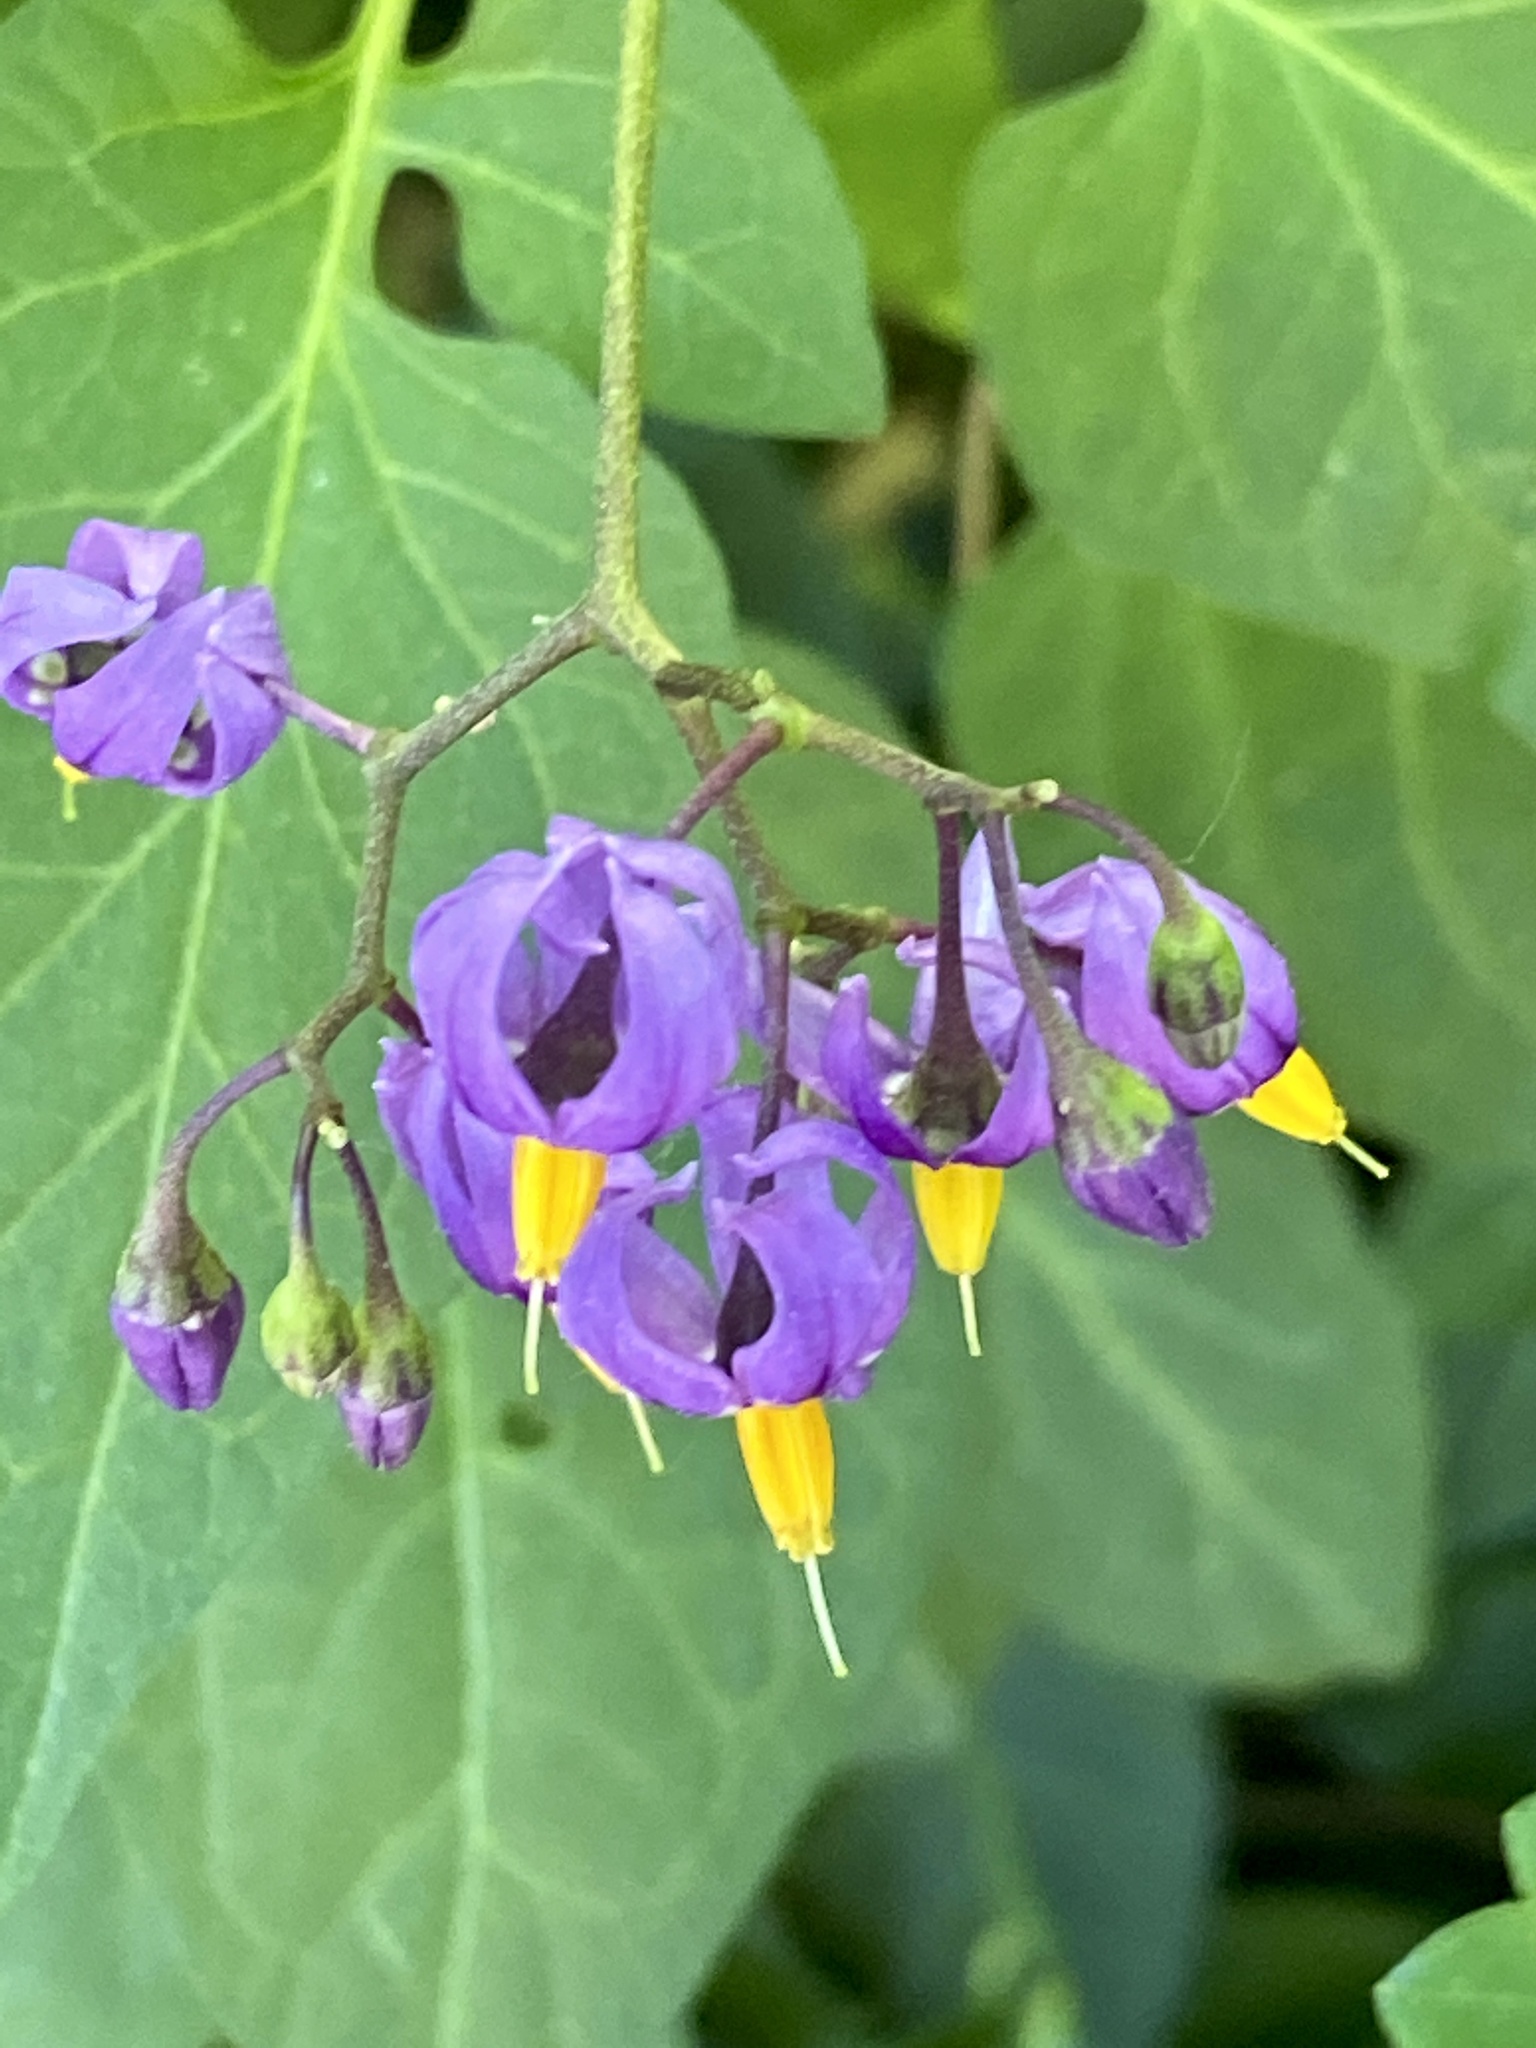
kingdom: Plantae
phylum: Tracheophyta
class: Magnoliopsida
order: Solanales
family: Solanaceae
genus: Solanum
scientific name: Solanum dulcamara
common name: Climbing nightshade
